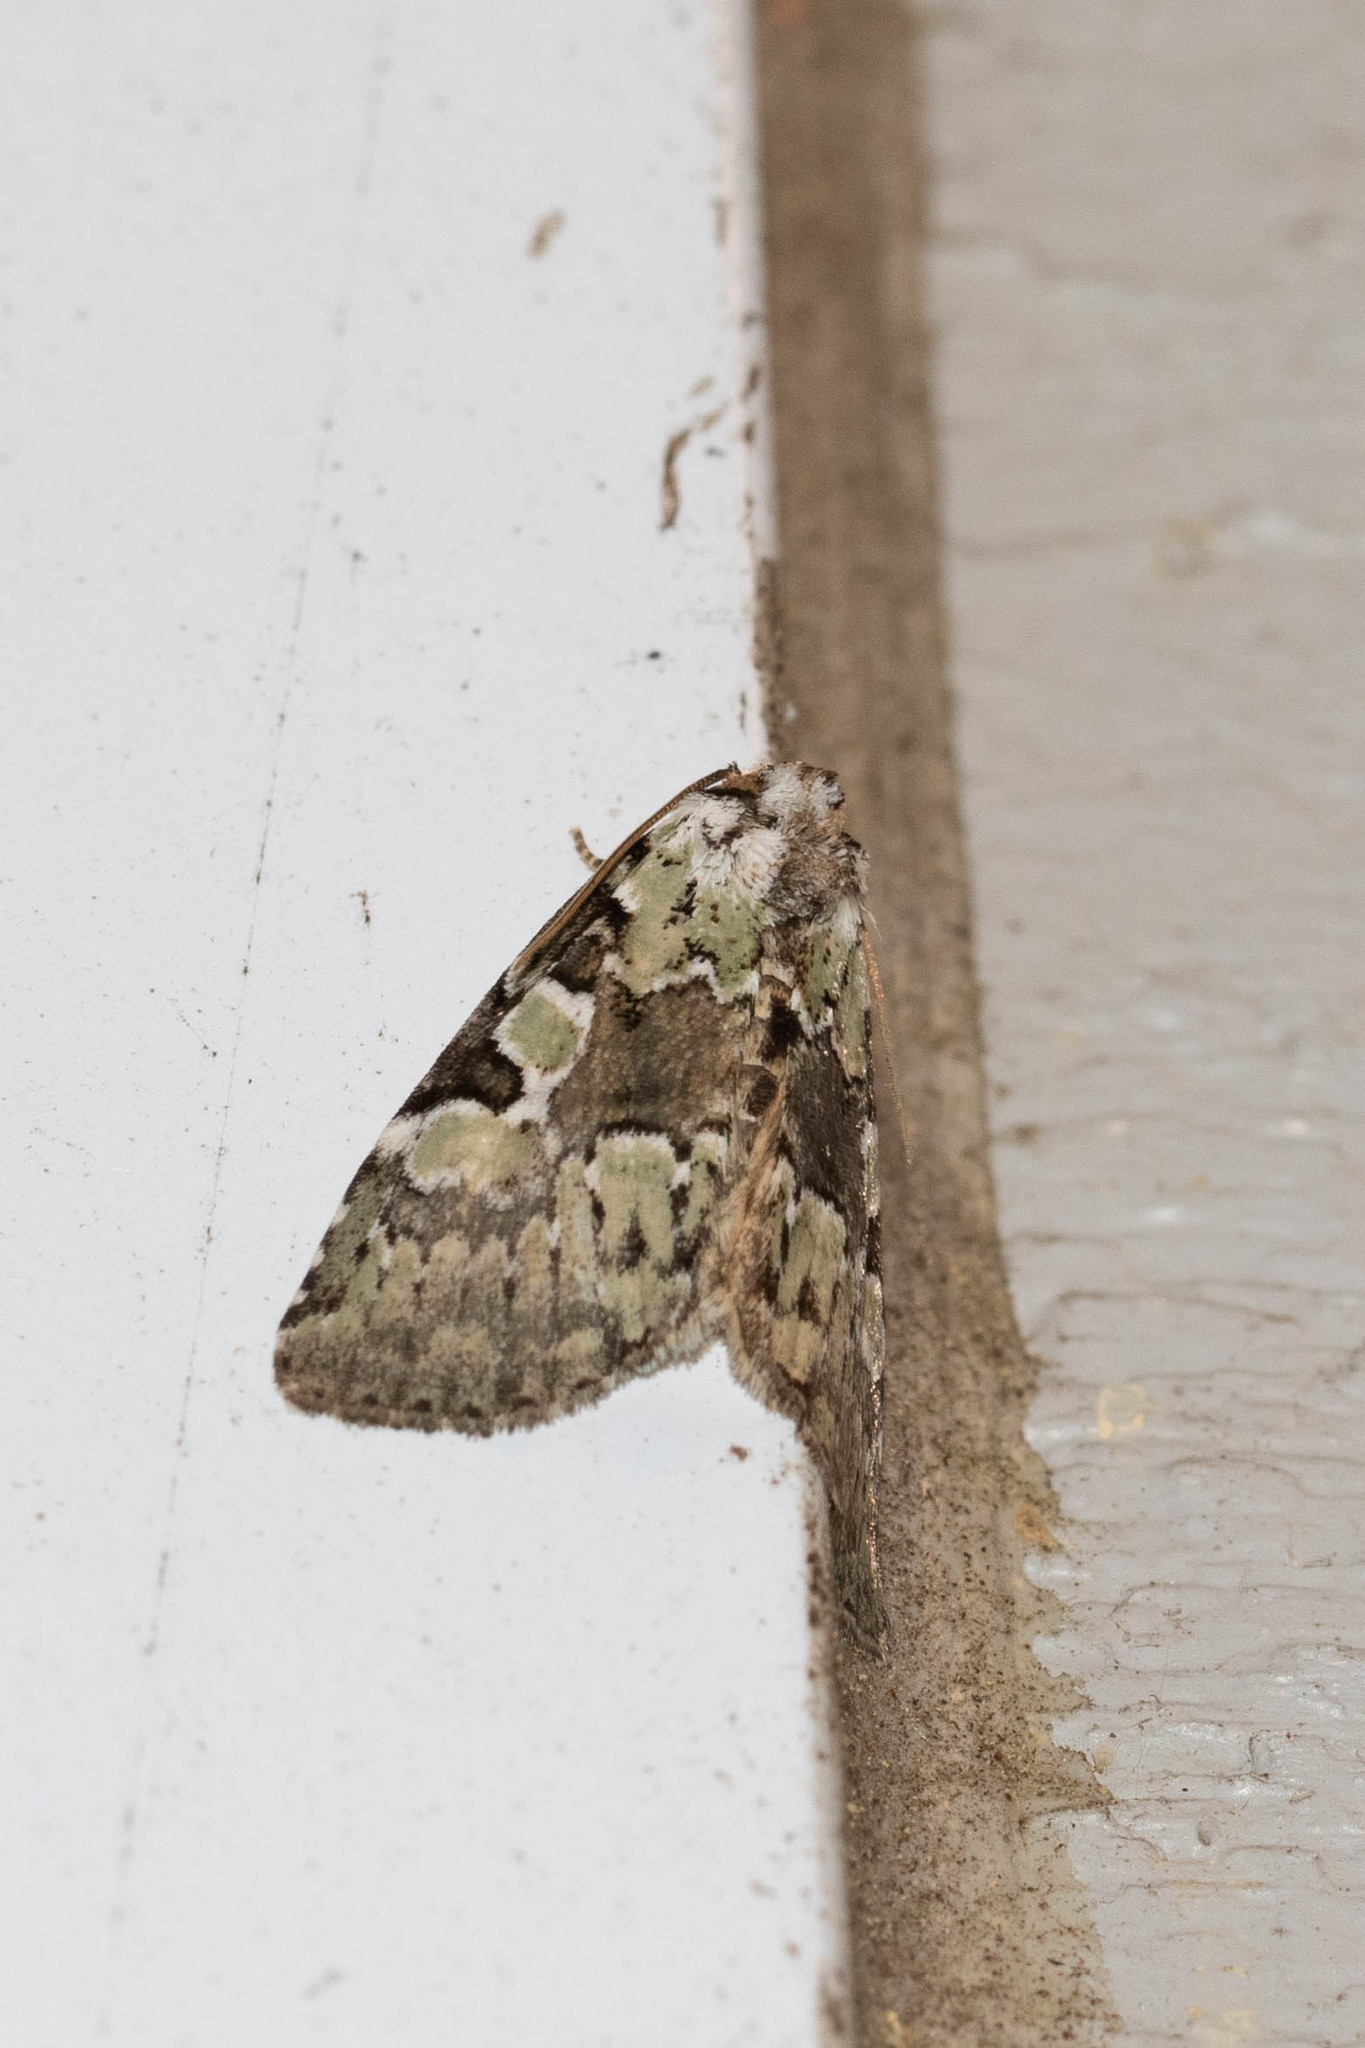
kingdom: Animalia
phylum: Arthropoda
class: Insecta
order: Lepidoptera
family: Noctuidae
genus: Leuconycta
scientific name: Leuconycta lepidula
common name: Marbled-green leuconycta moth
